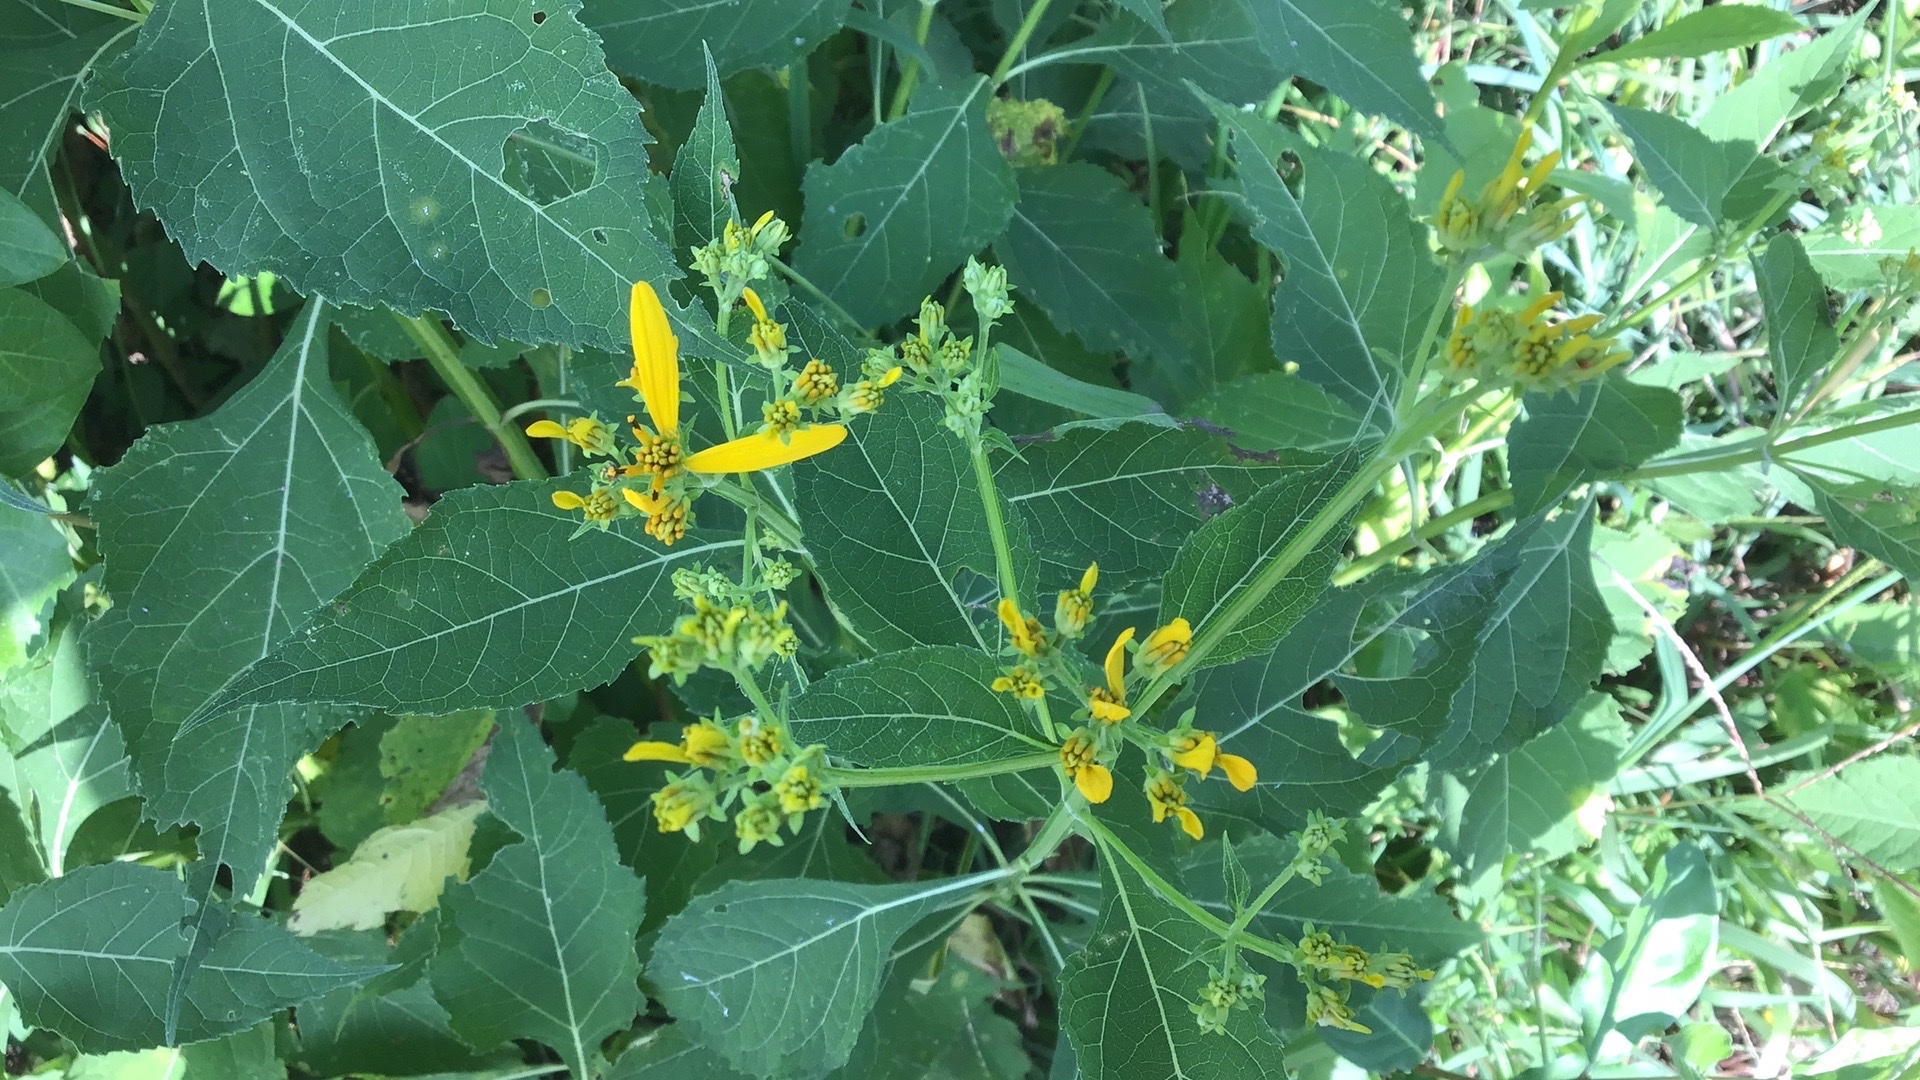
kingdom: Plantae
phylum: Tracheophyta
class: Magnoliopsida
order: Asterales
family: Asteraceae
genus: Verbesina
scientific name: Verbesina occidentalis
